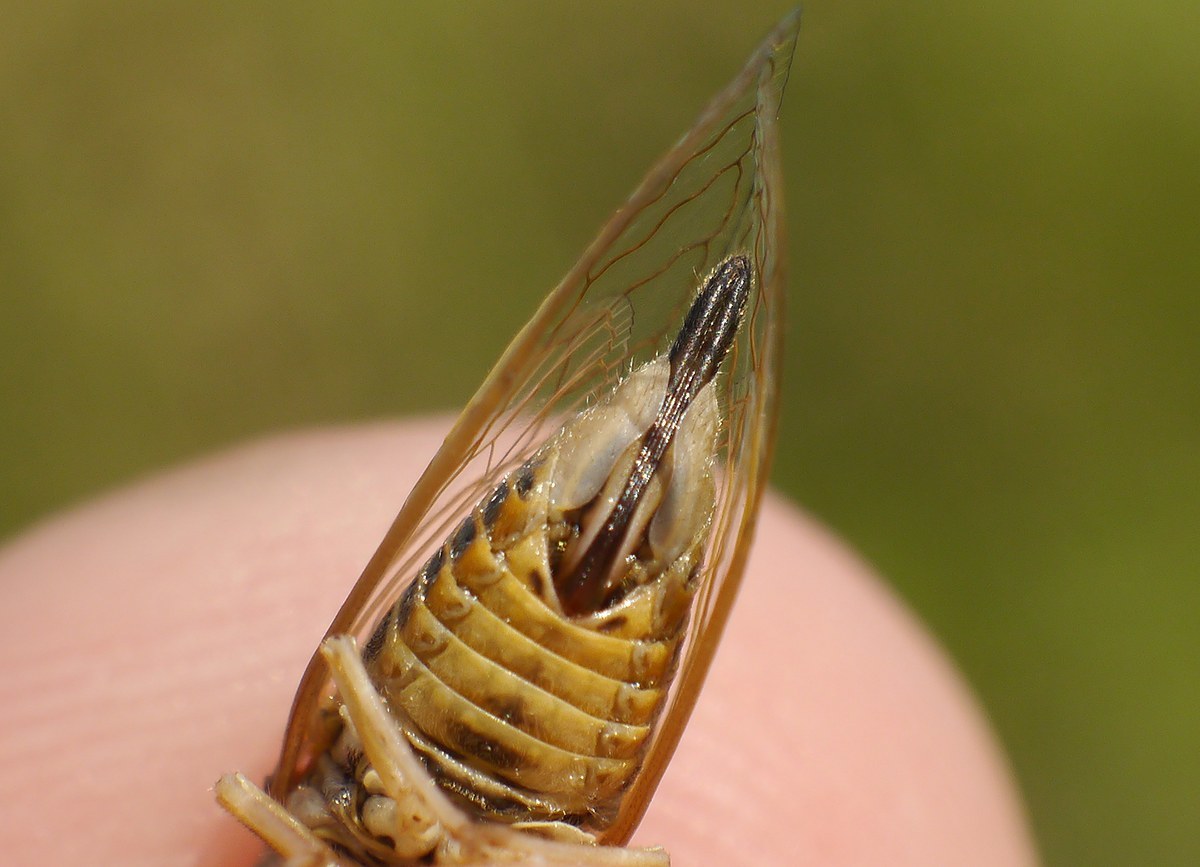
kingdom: Animalia
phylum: Arthropoda
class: Insecta
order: Hemiptera
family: Cicadidae
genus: Oligoglena
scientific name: Oligoglena tibialis
